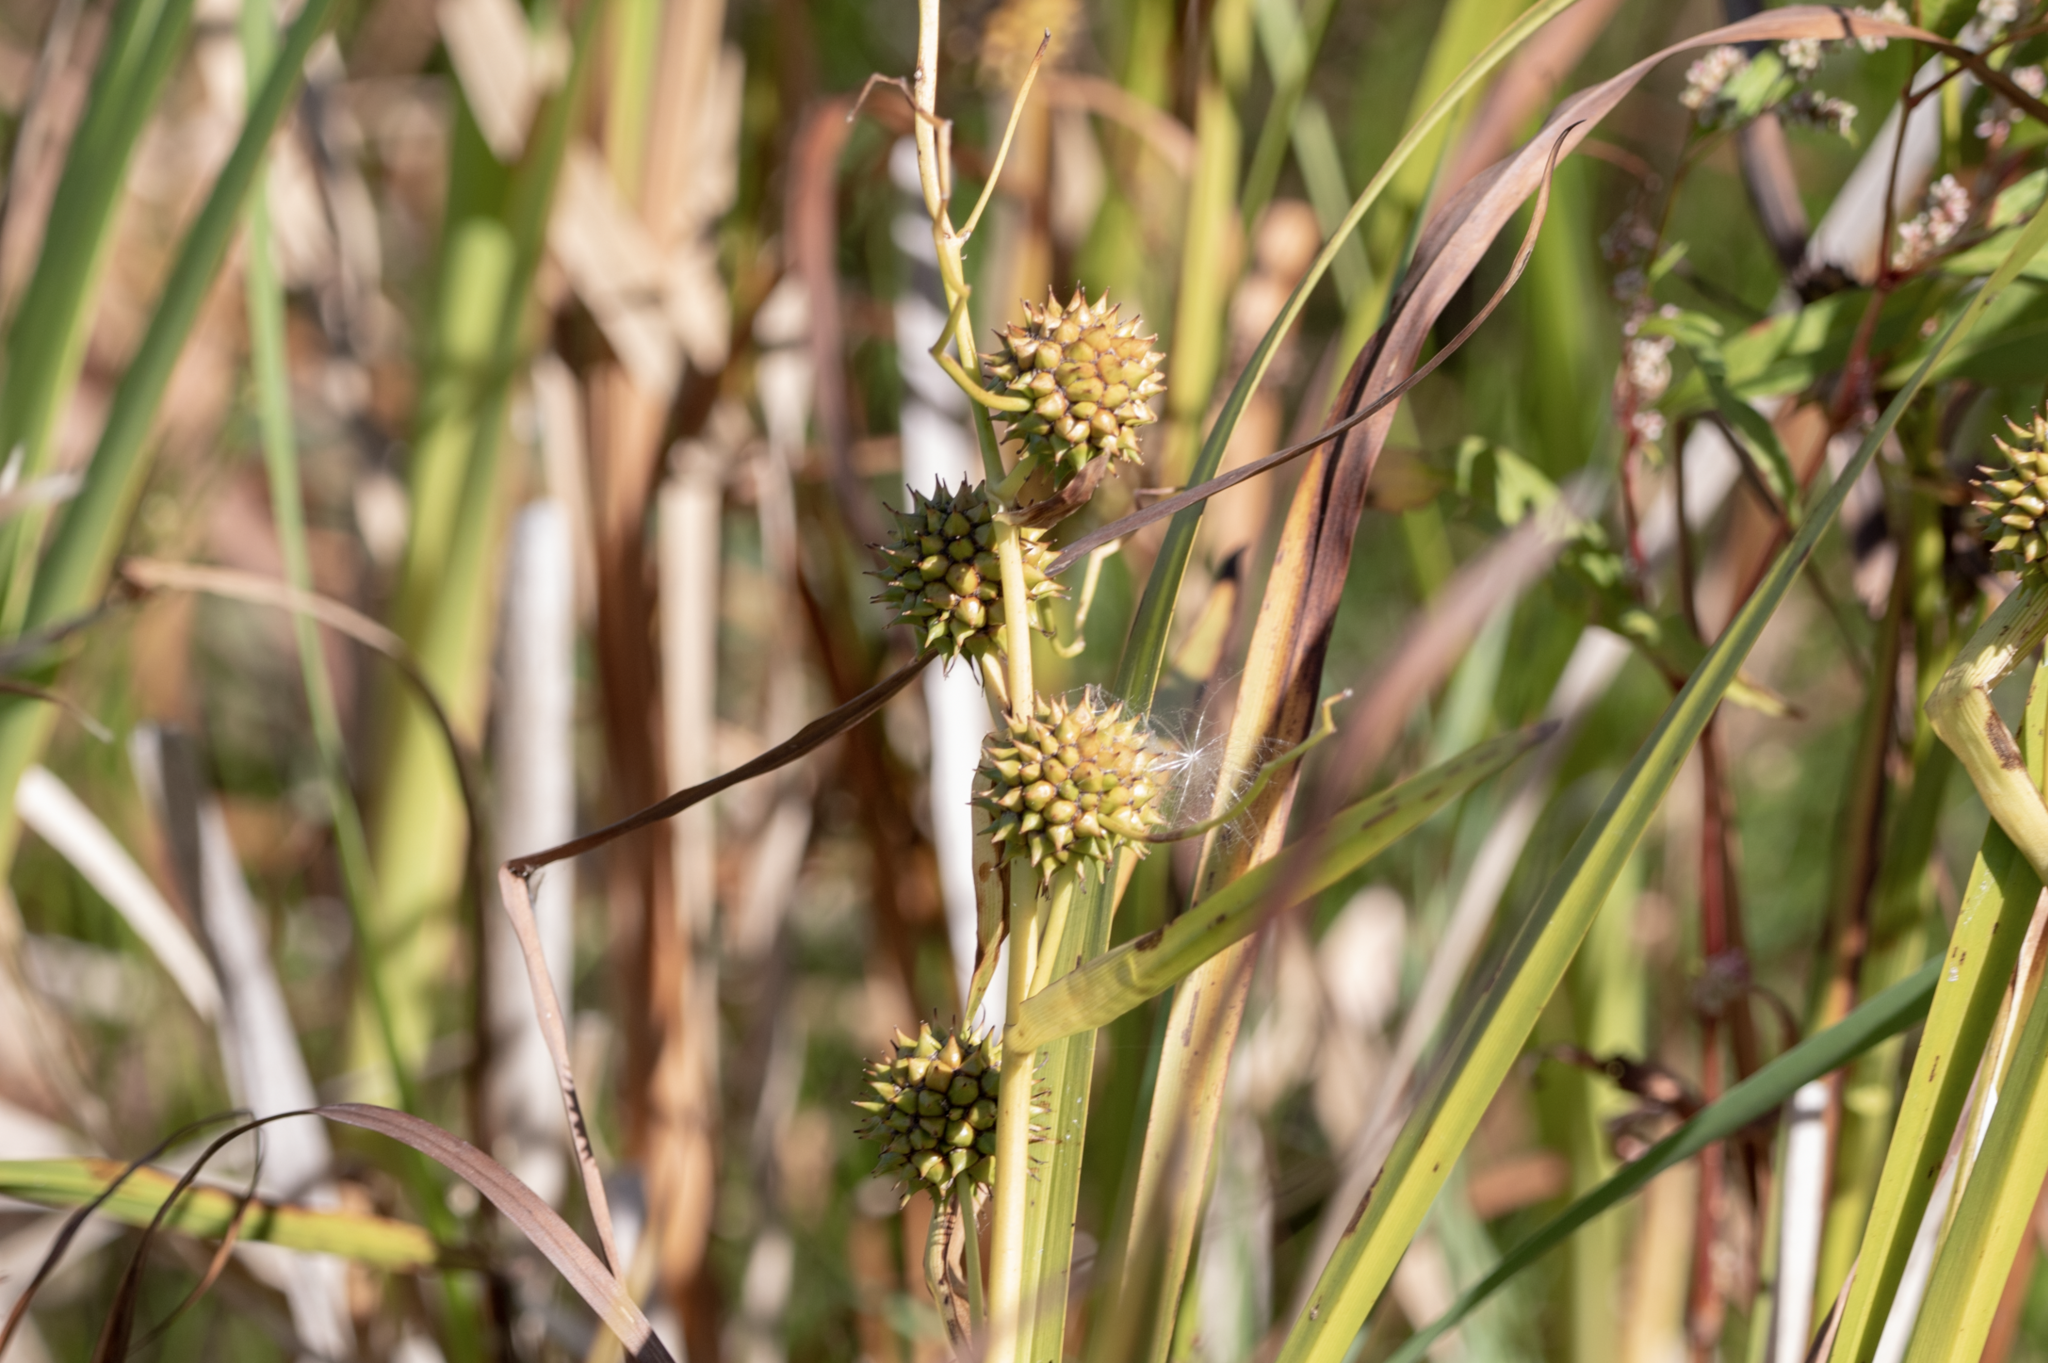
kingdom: Plantae
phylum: Tracheophyta
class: Liliopsida
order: Poales
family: Typhaceae
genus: Sparganium
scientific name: Sparganium eurycarpum
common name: Broad-fruited burreed
